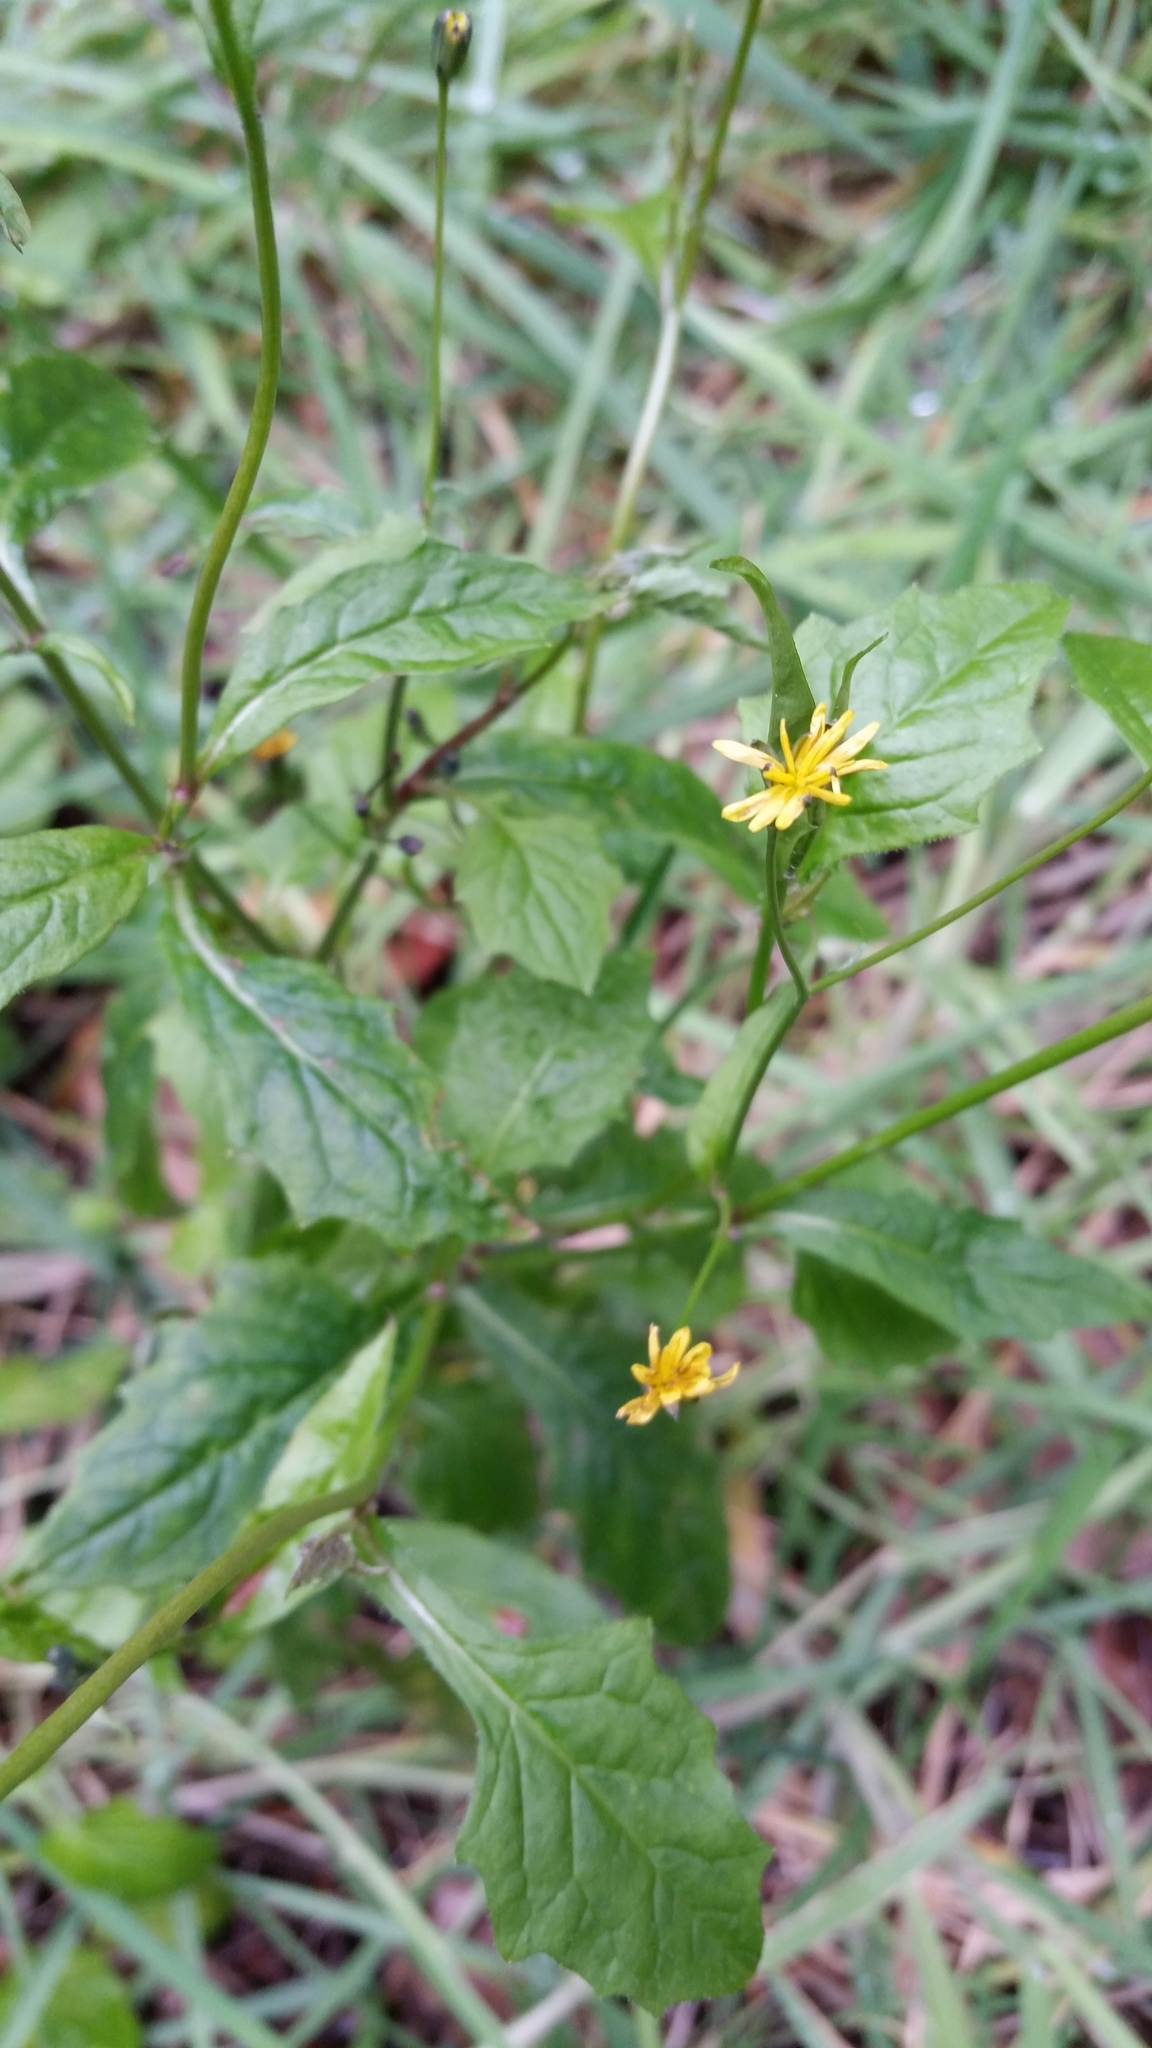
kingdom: Plantae
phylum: Tracheophyta
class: Magnoliopsida
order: Asterales
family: Asteraceae
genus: Lapsana
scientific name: Lapsana communis
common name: Nipplewort
